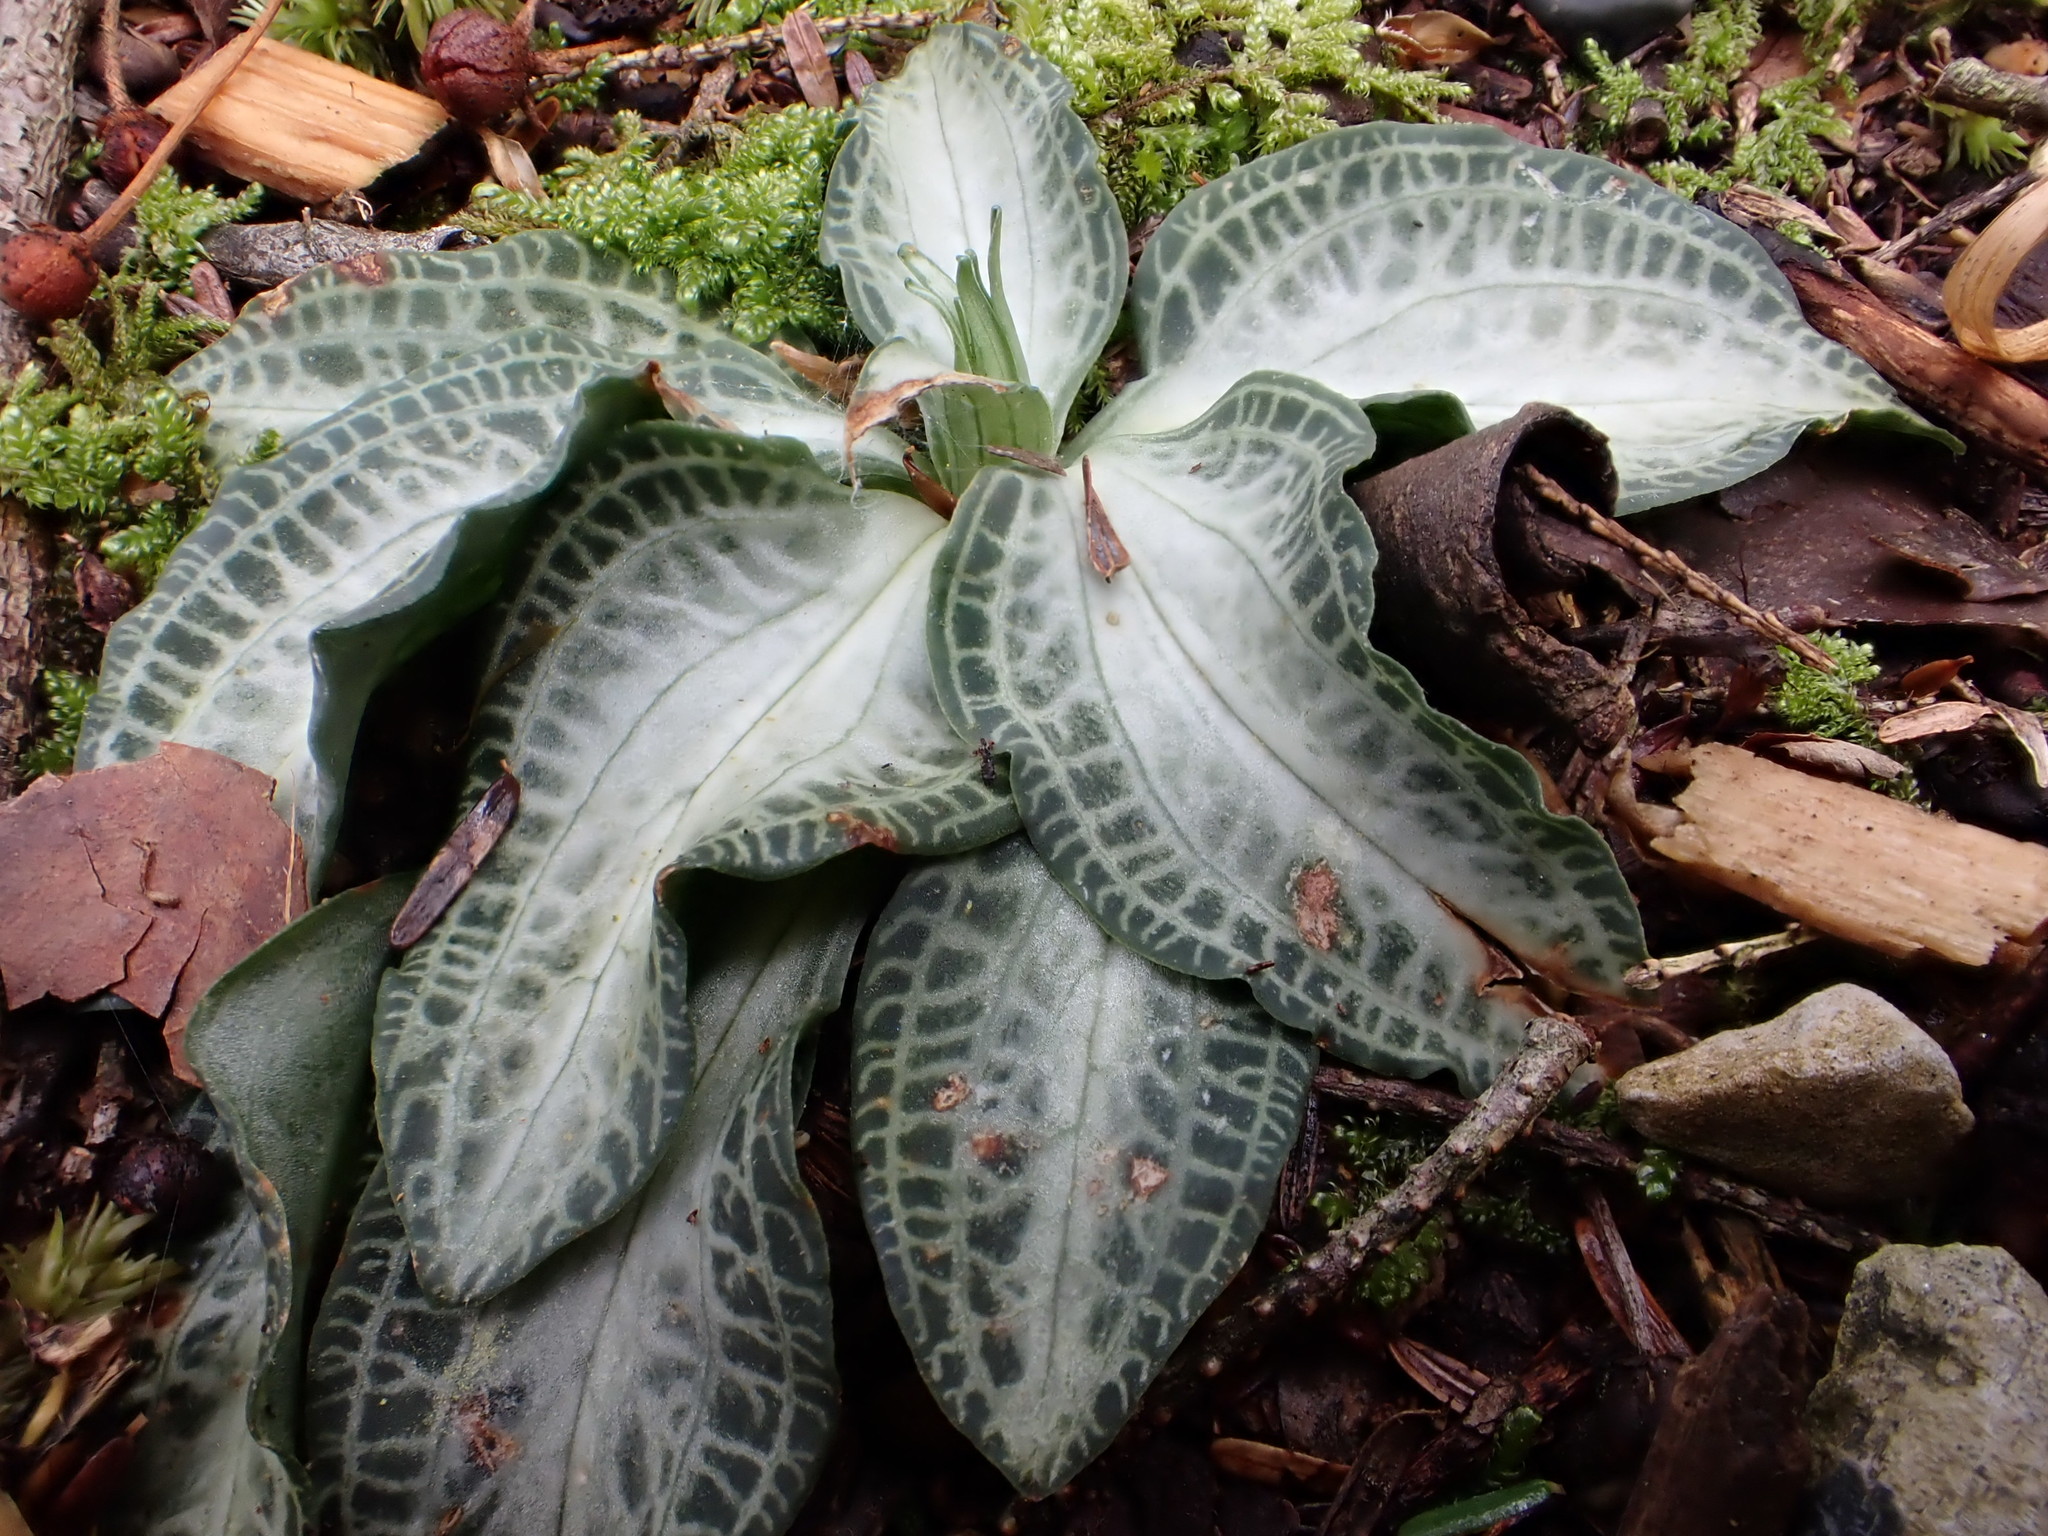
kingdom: Plantae
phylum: Tracheophyta
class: Liliopsida
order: Asparagales
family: Orchidaceae
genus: Goodyera
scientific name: Goodyera pubescens
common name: Downy rattlesnake-plantain
